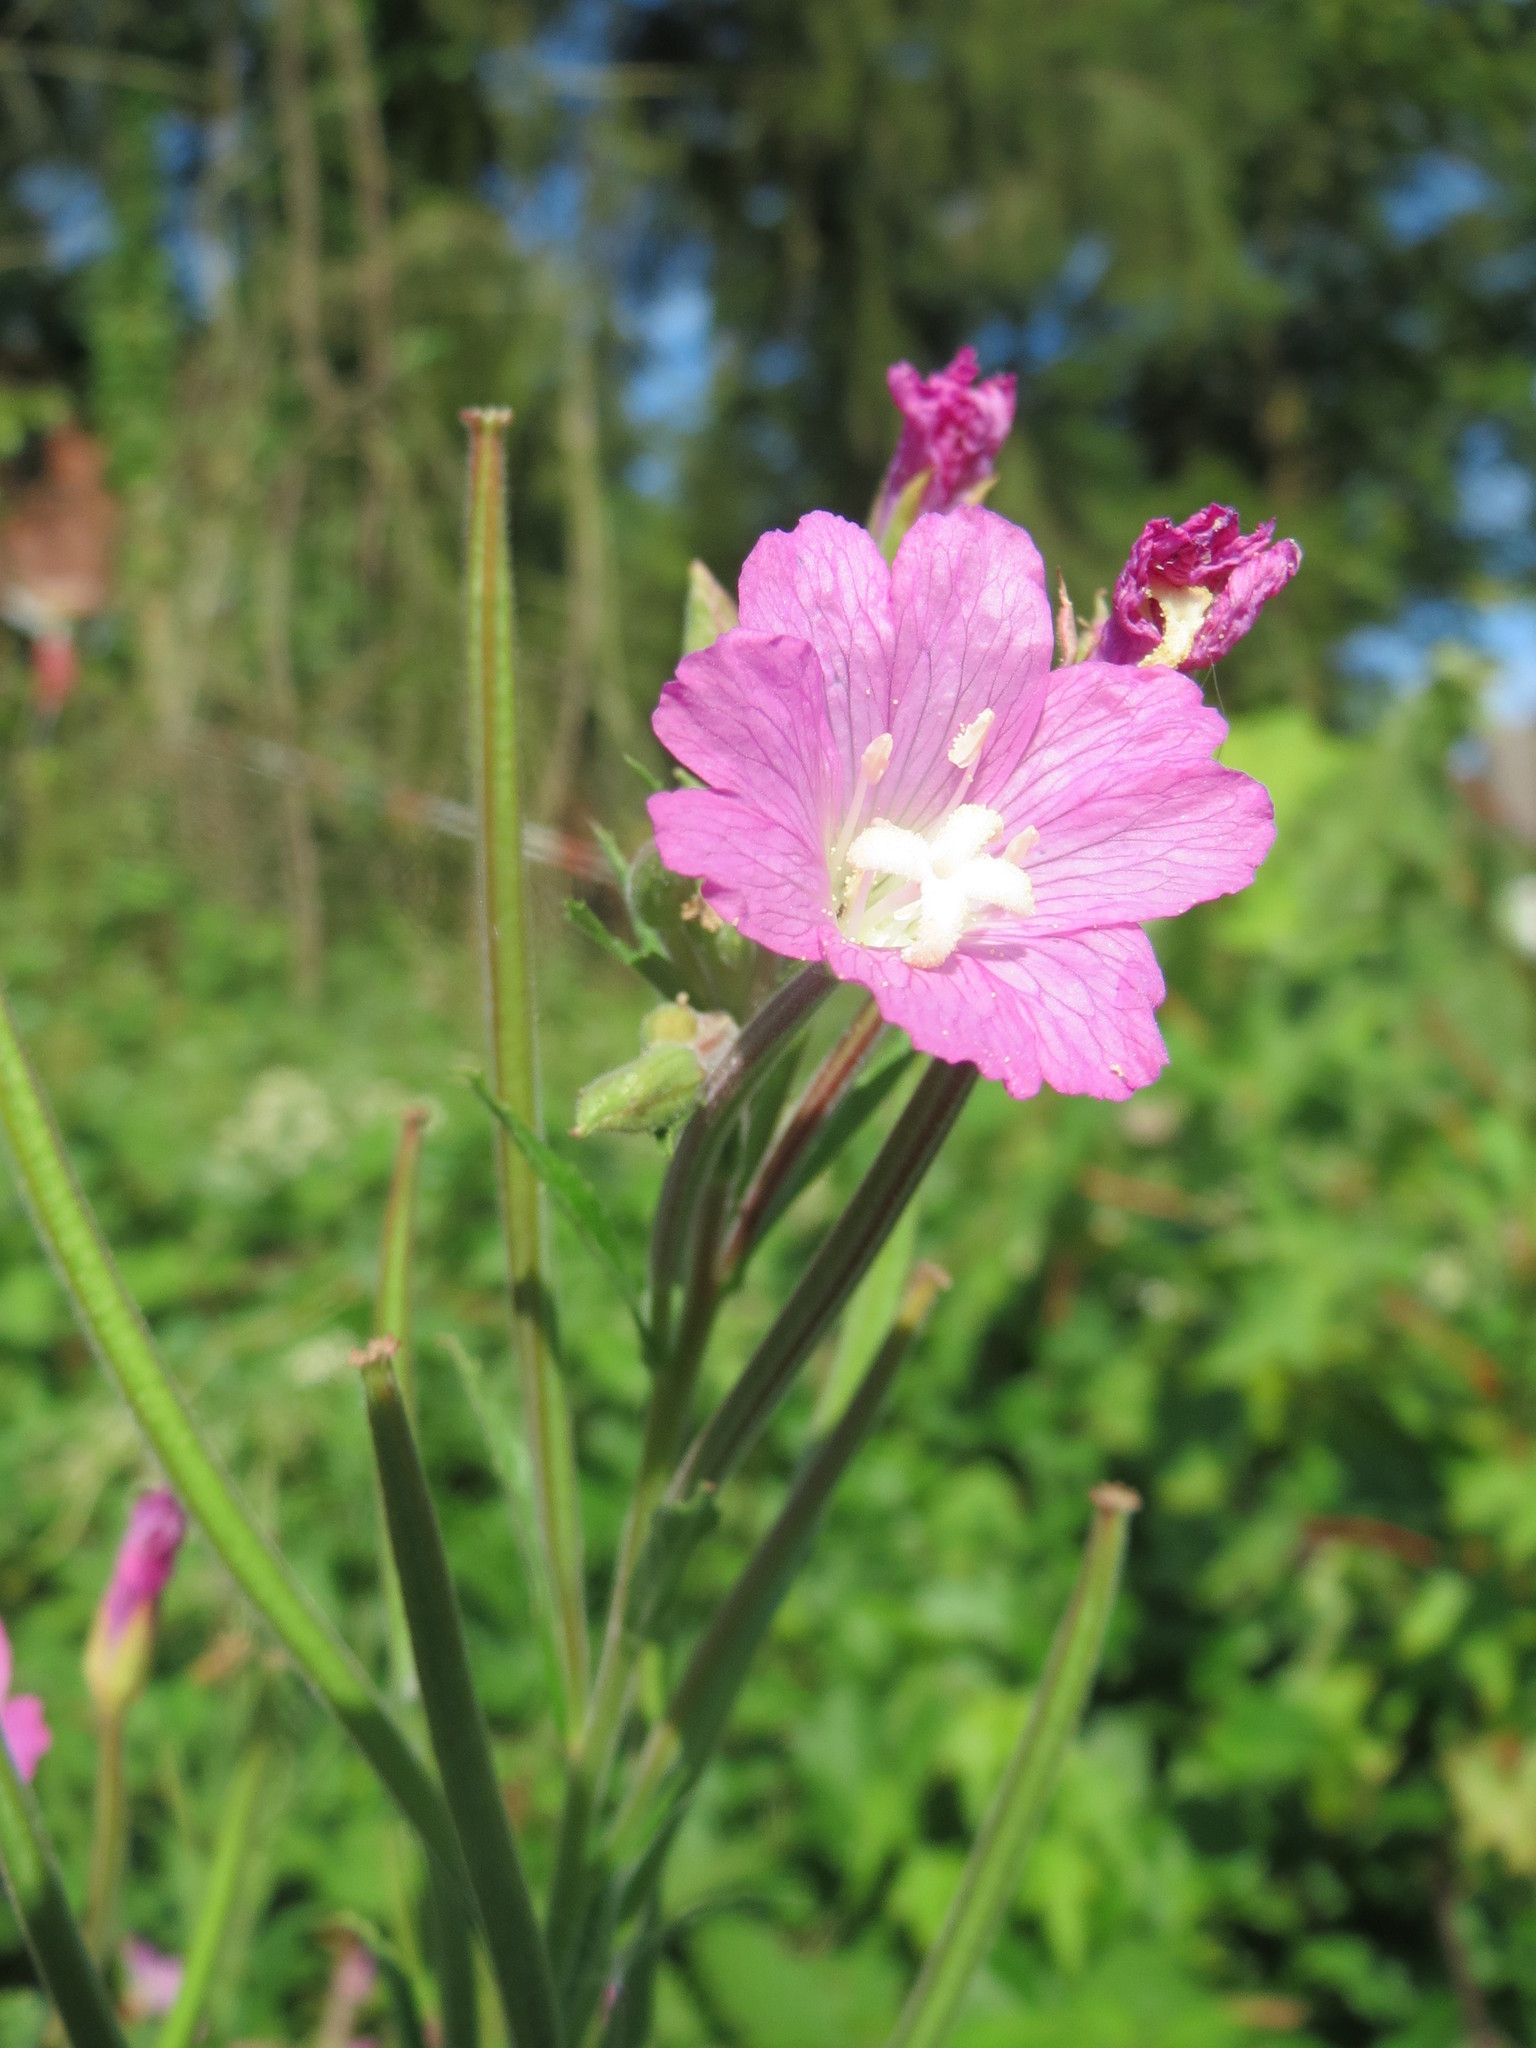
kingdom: Plantae
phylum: Tracheophyta
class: Magnoliopsida
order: Myrtales
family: Onagraceae
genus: Epilobium
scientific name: Epilobium hirsutum
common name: Great willowherb
